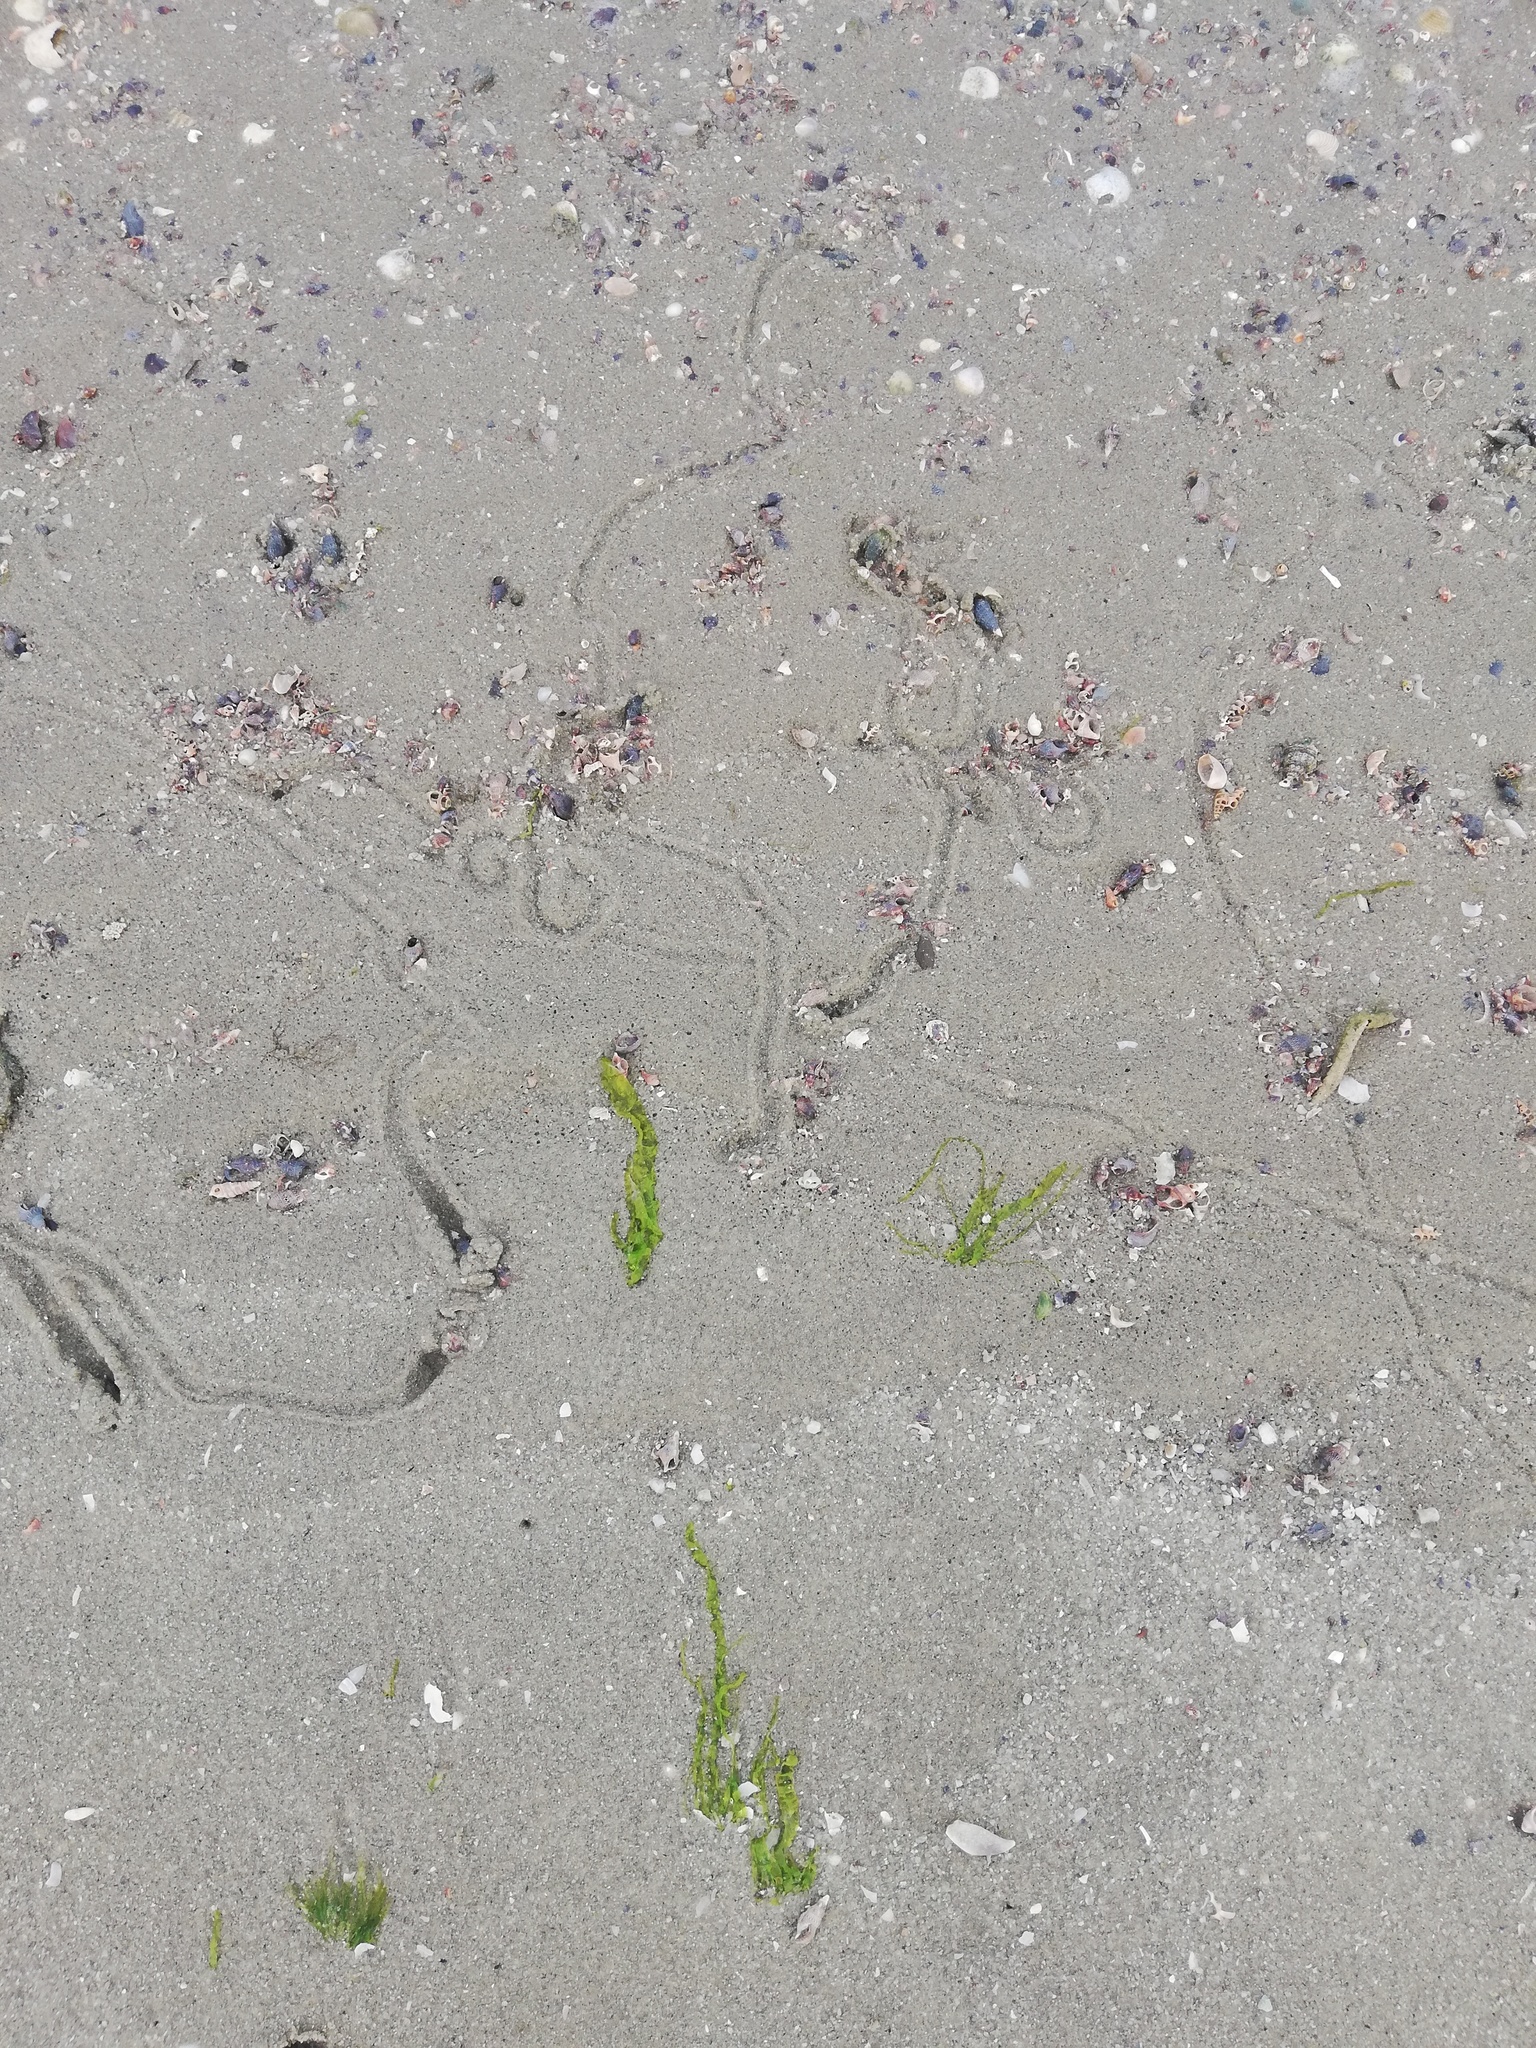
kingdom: Animalia
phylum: Mollusca
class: Gastropoda
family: Potamididae
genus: Cerithideopsis
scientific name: Cerithideopsis californica
